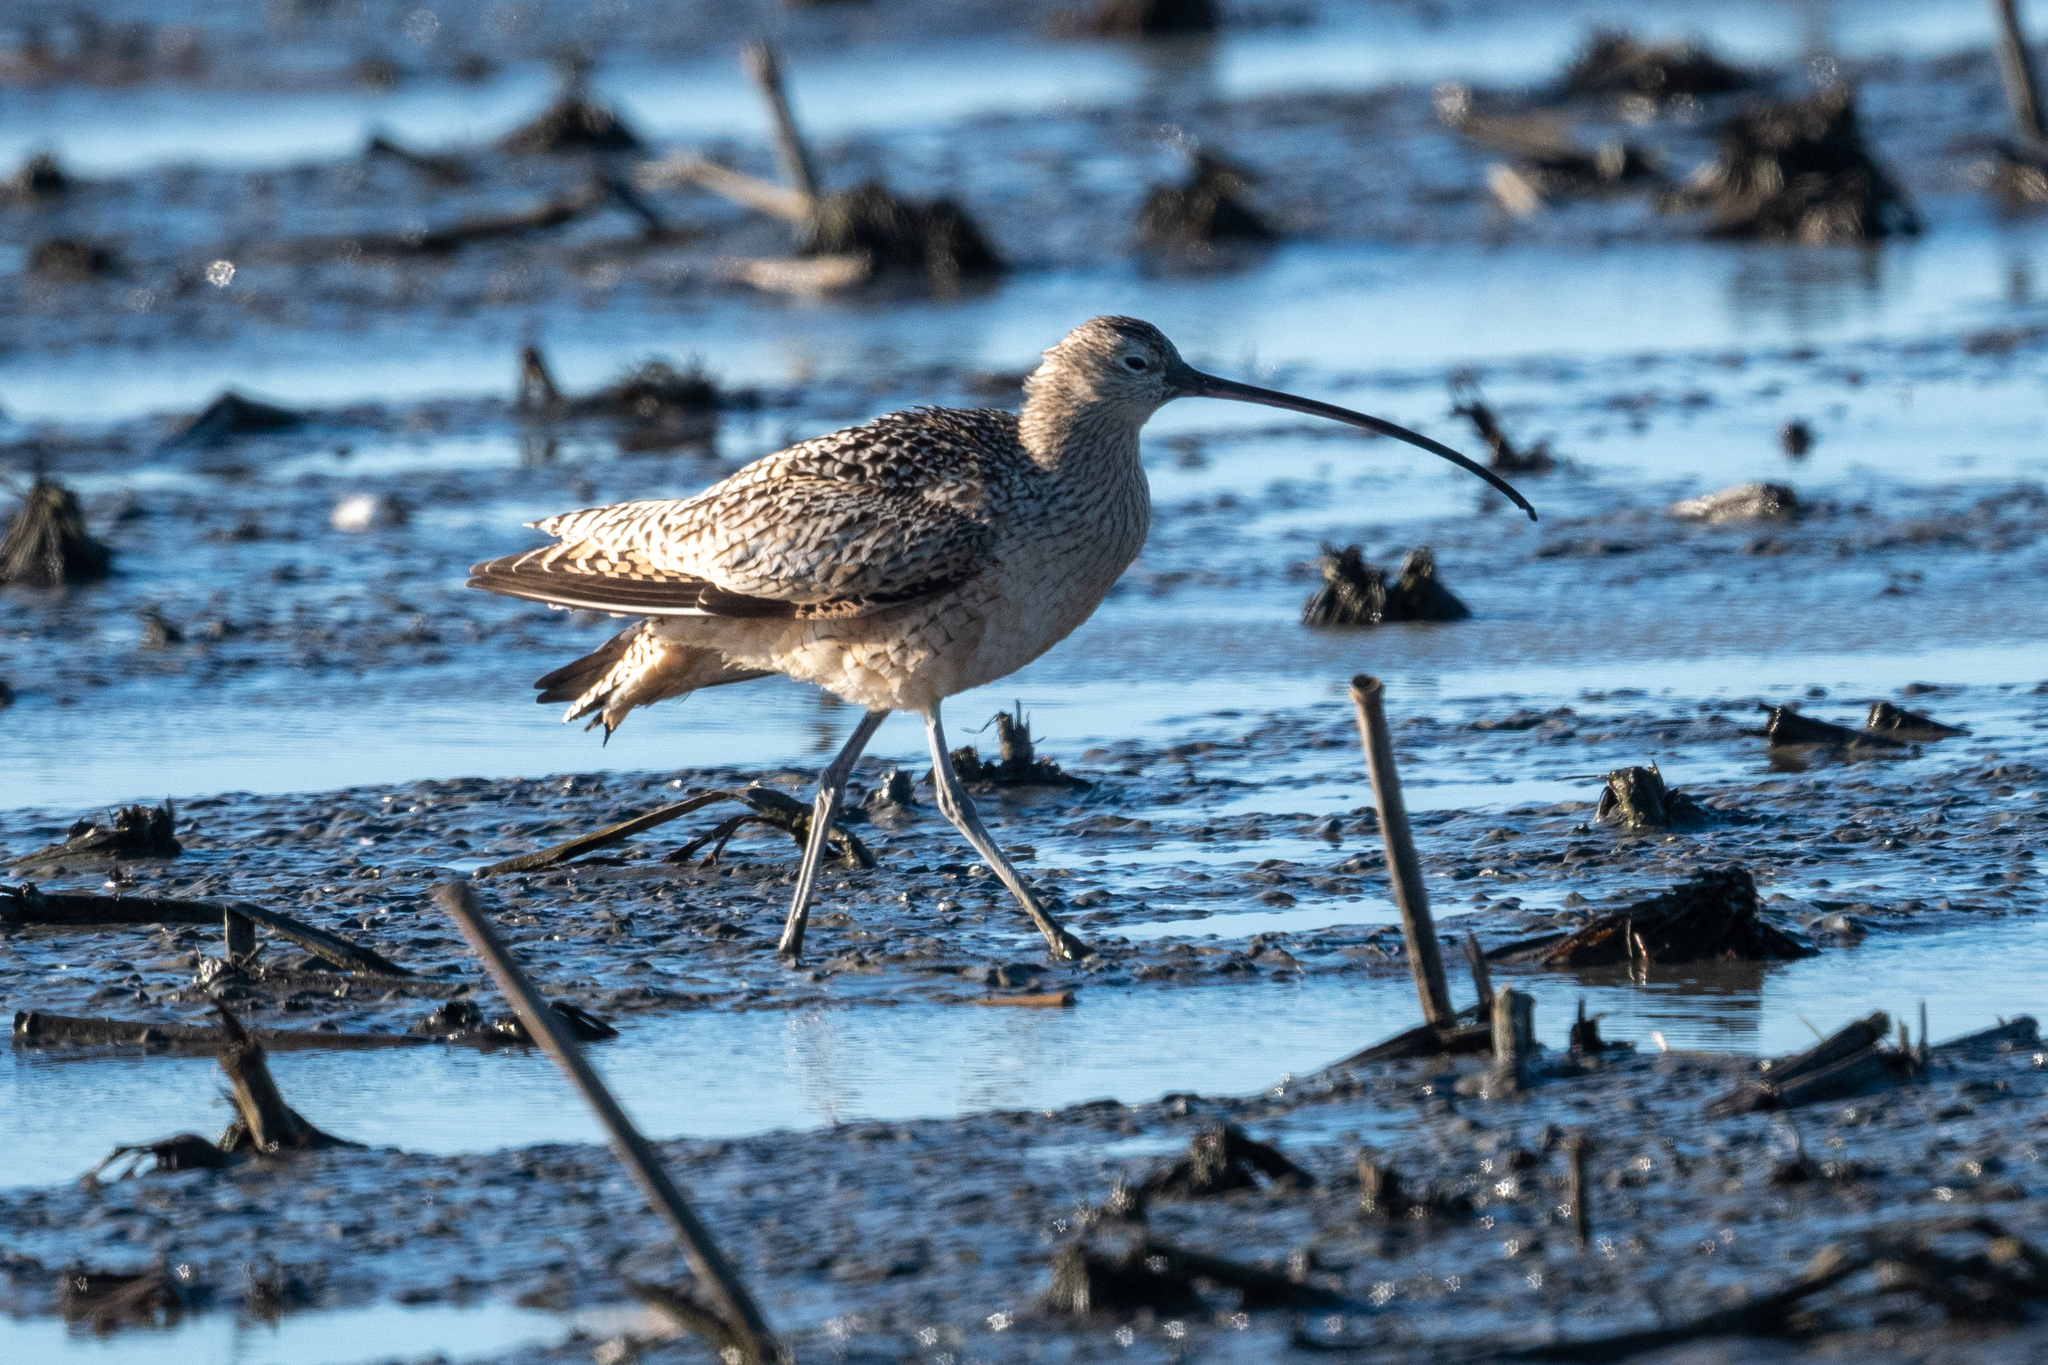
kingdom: Animalia
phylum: Chordata
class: Aves
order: Charadriiformes
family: Scolopacidae
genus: Numenius
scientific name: Numenius americanus
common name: Long-billed curlew
